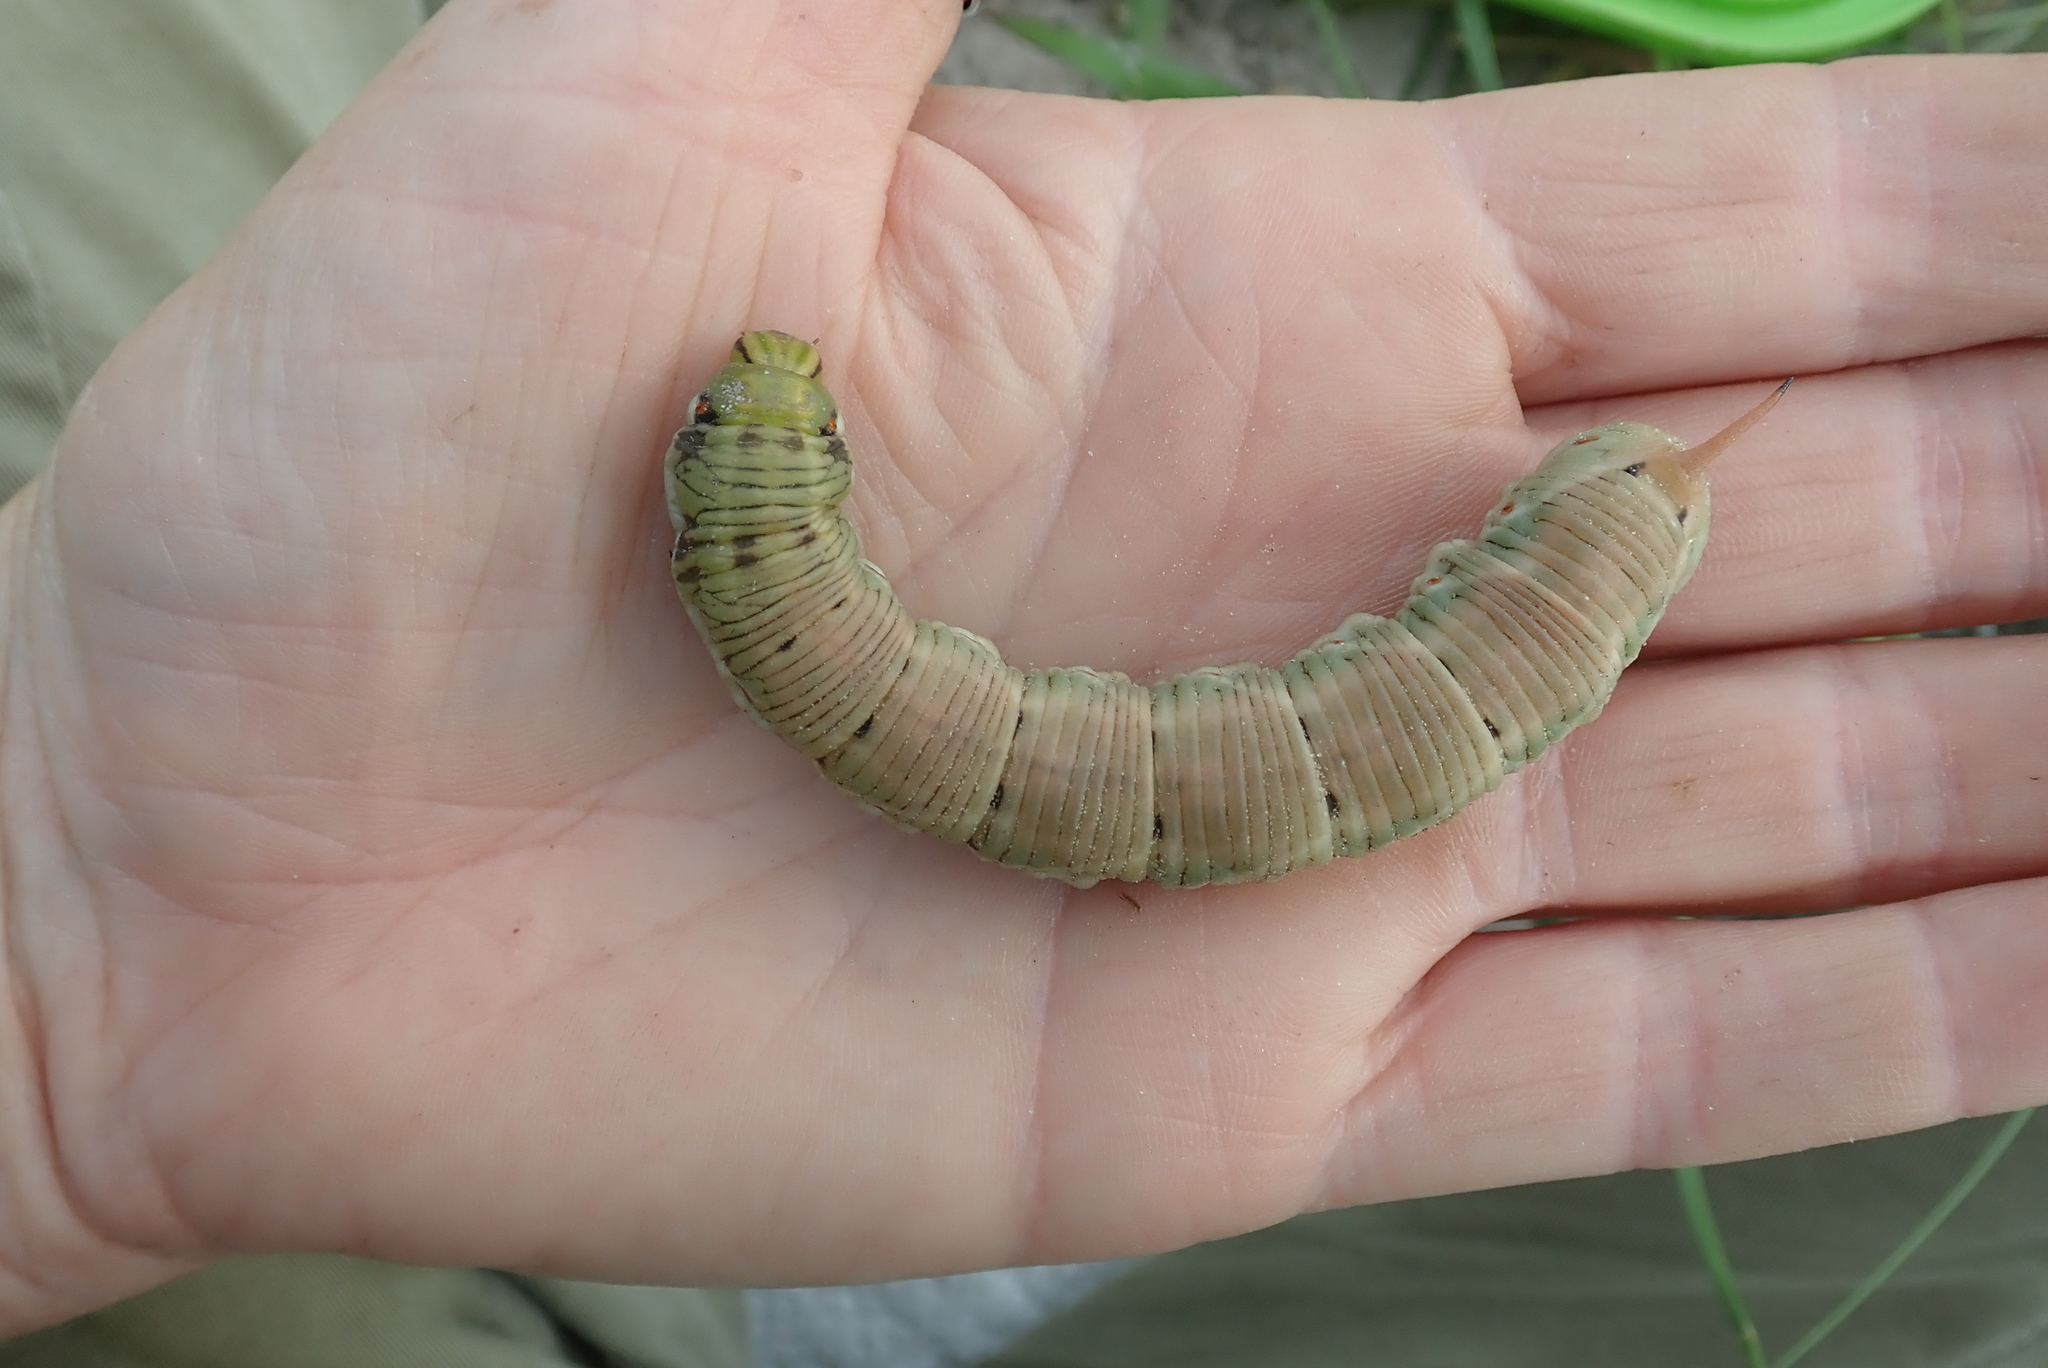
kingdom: Animalia
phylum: Arthropoda
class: Insecta
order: Lepidoptera
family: Sphingidae
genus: Agrius
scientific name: Agrius convolvuli
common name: Convolvulus hawkmoth
